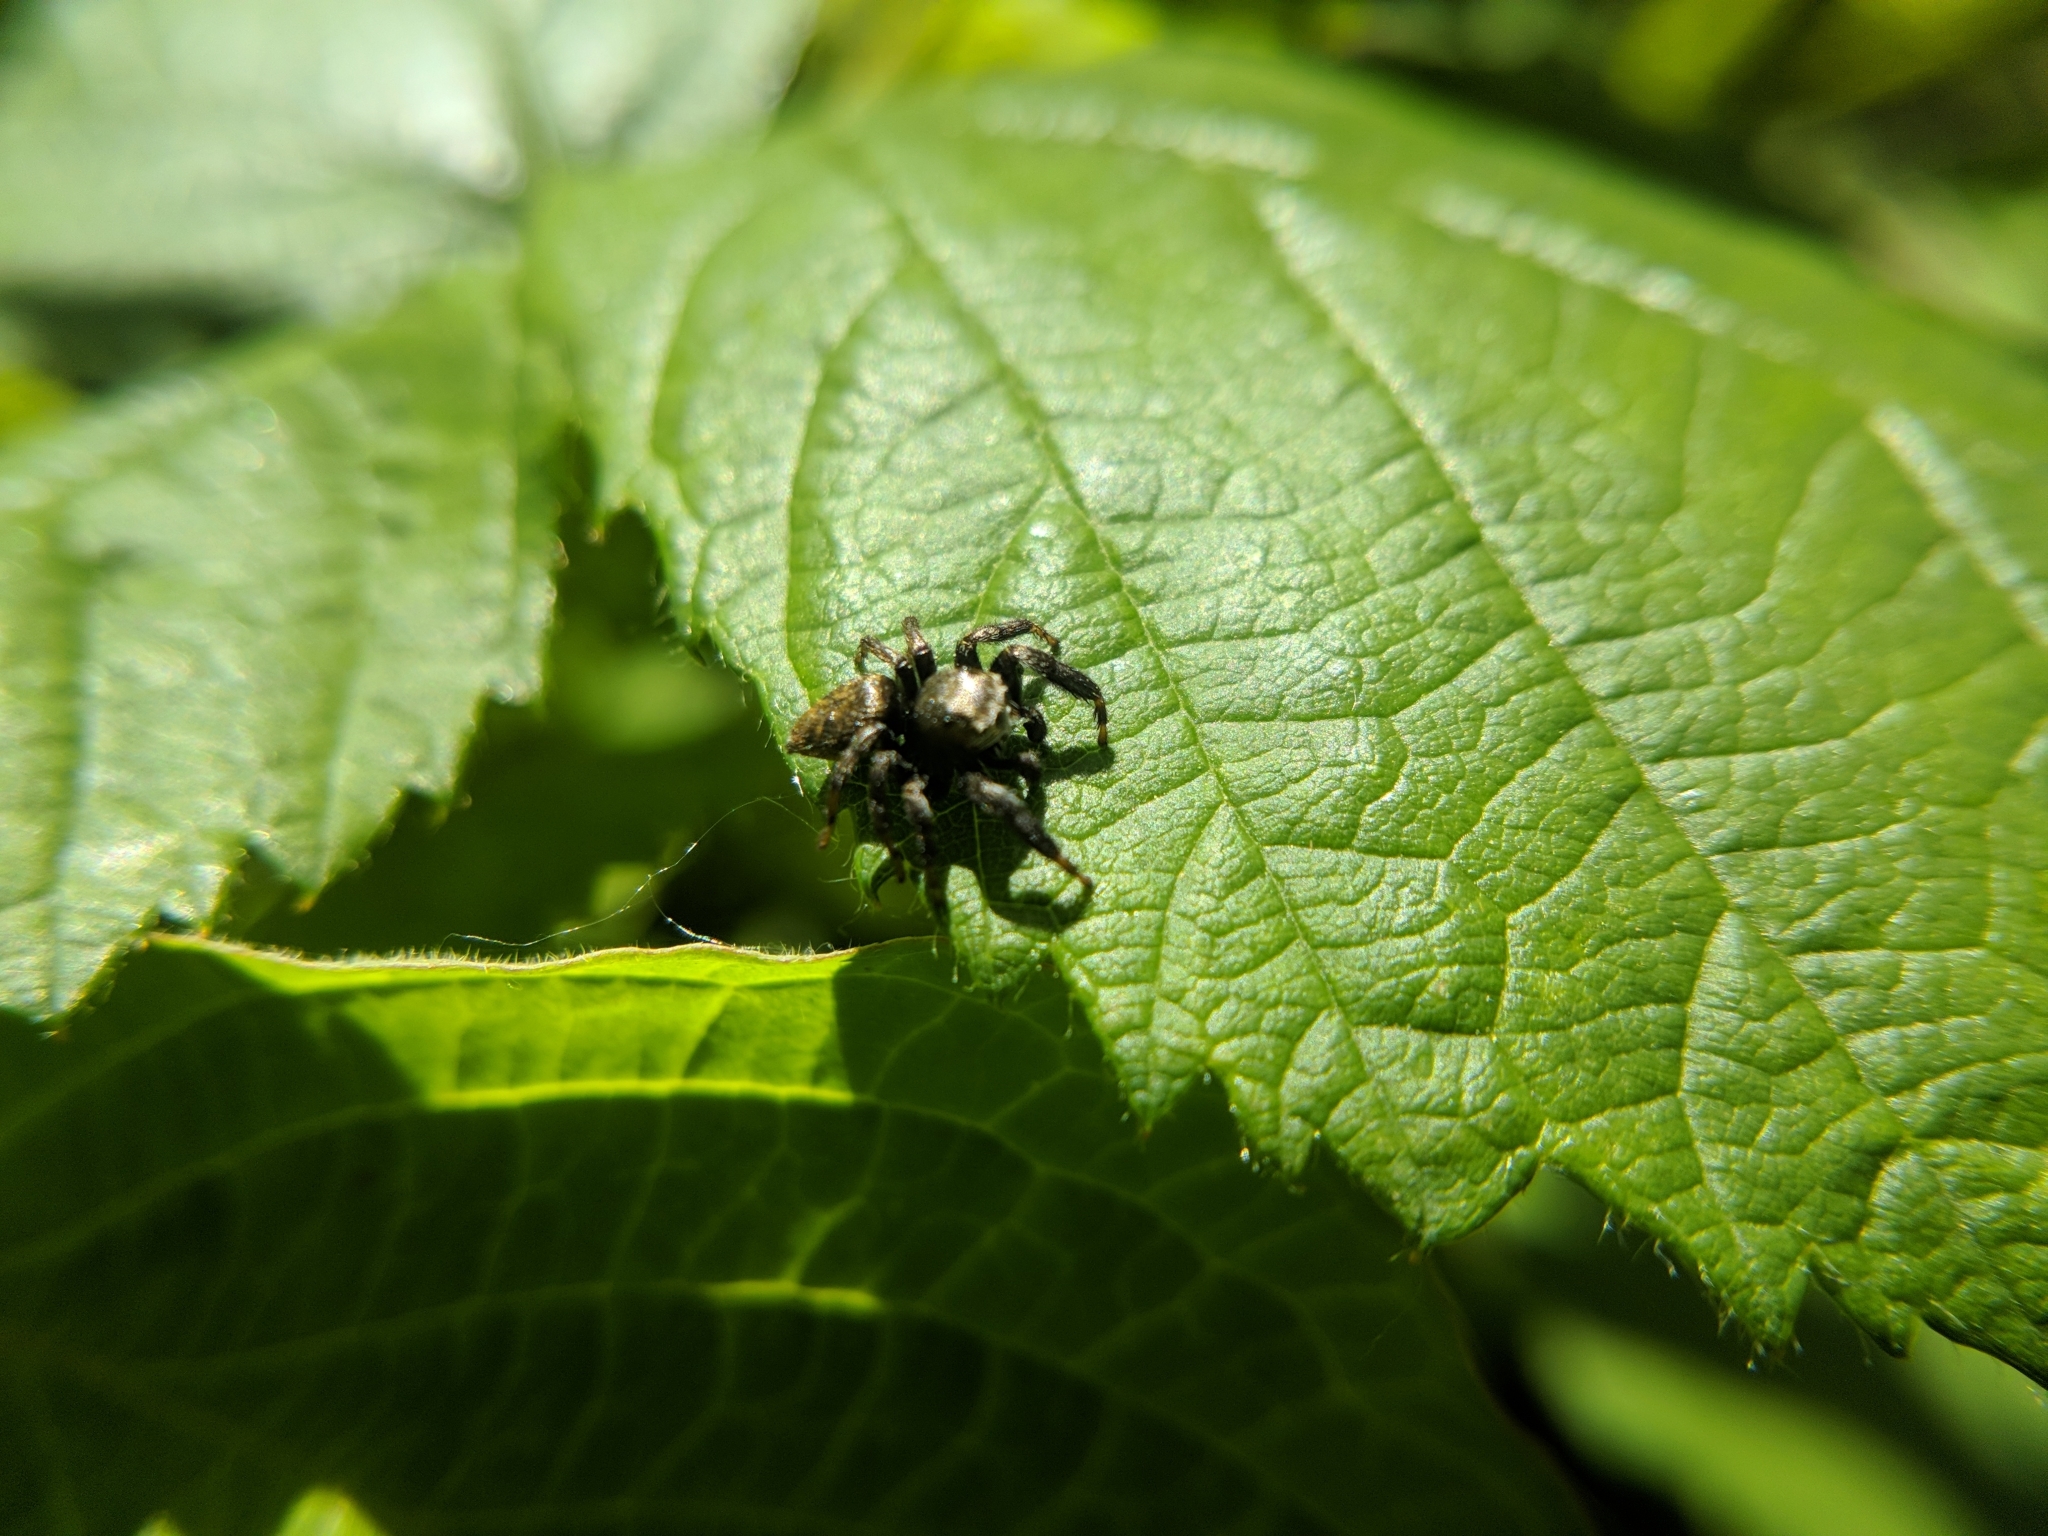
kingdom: Animalia
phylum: Arthropoda
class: Arachnida
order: Araneae
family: Salticidae
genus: Evarcha
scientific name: Evarcha arcuata
